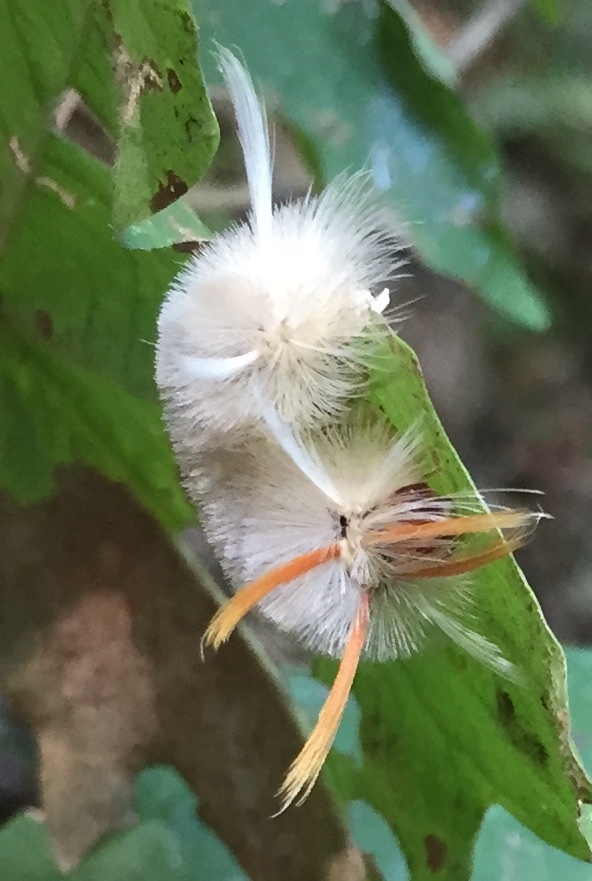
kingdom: Animalia
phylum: Arthropoda
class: Insecta
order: Lepidoptera
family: Erebidae
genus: Halysidota
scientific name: Halysidota harrisii
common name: Sycamore tussock moth
